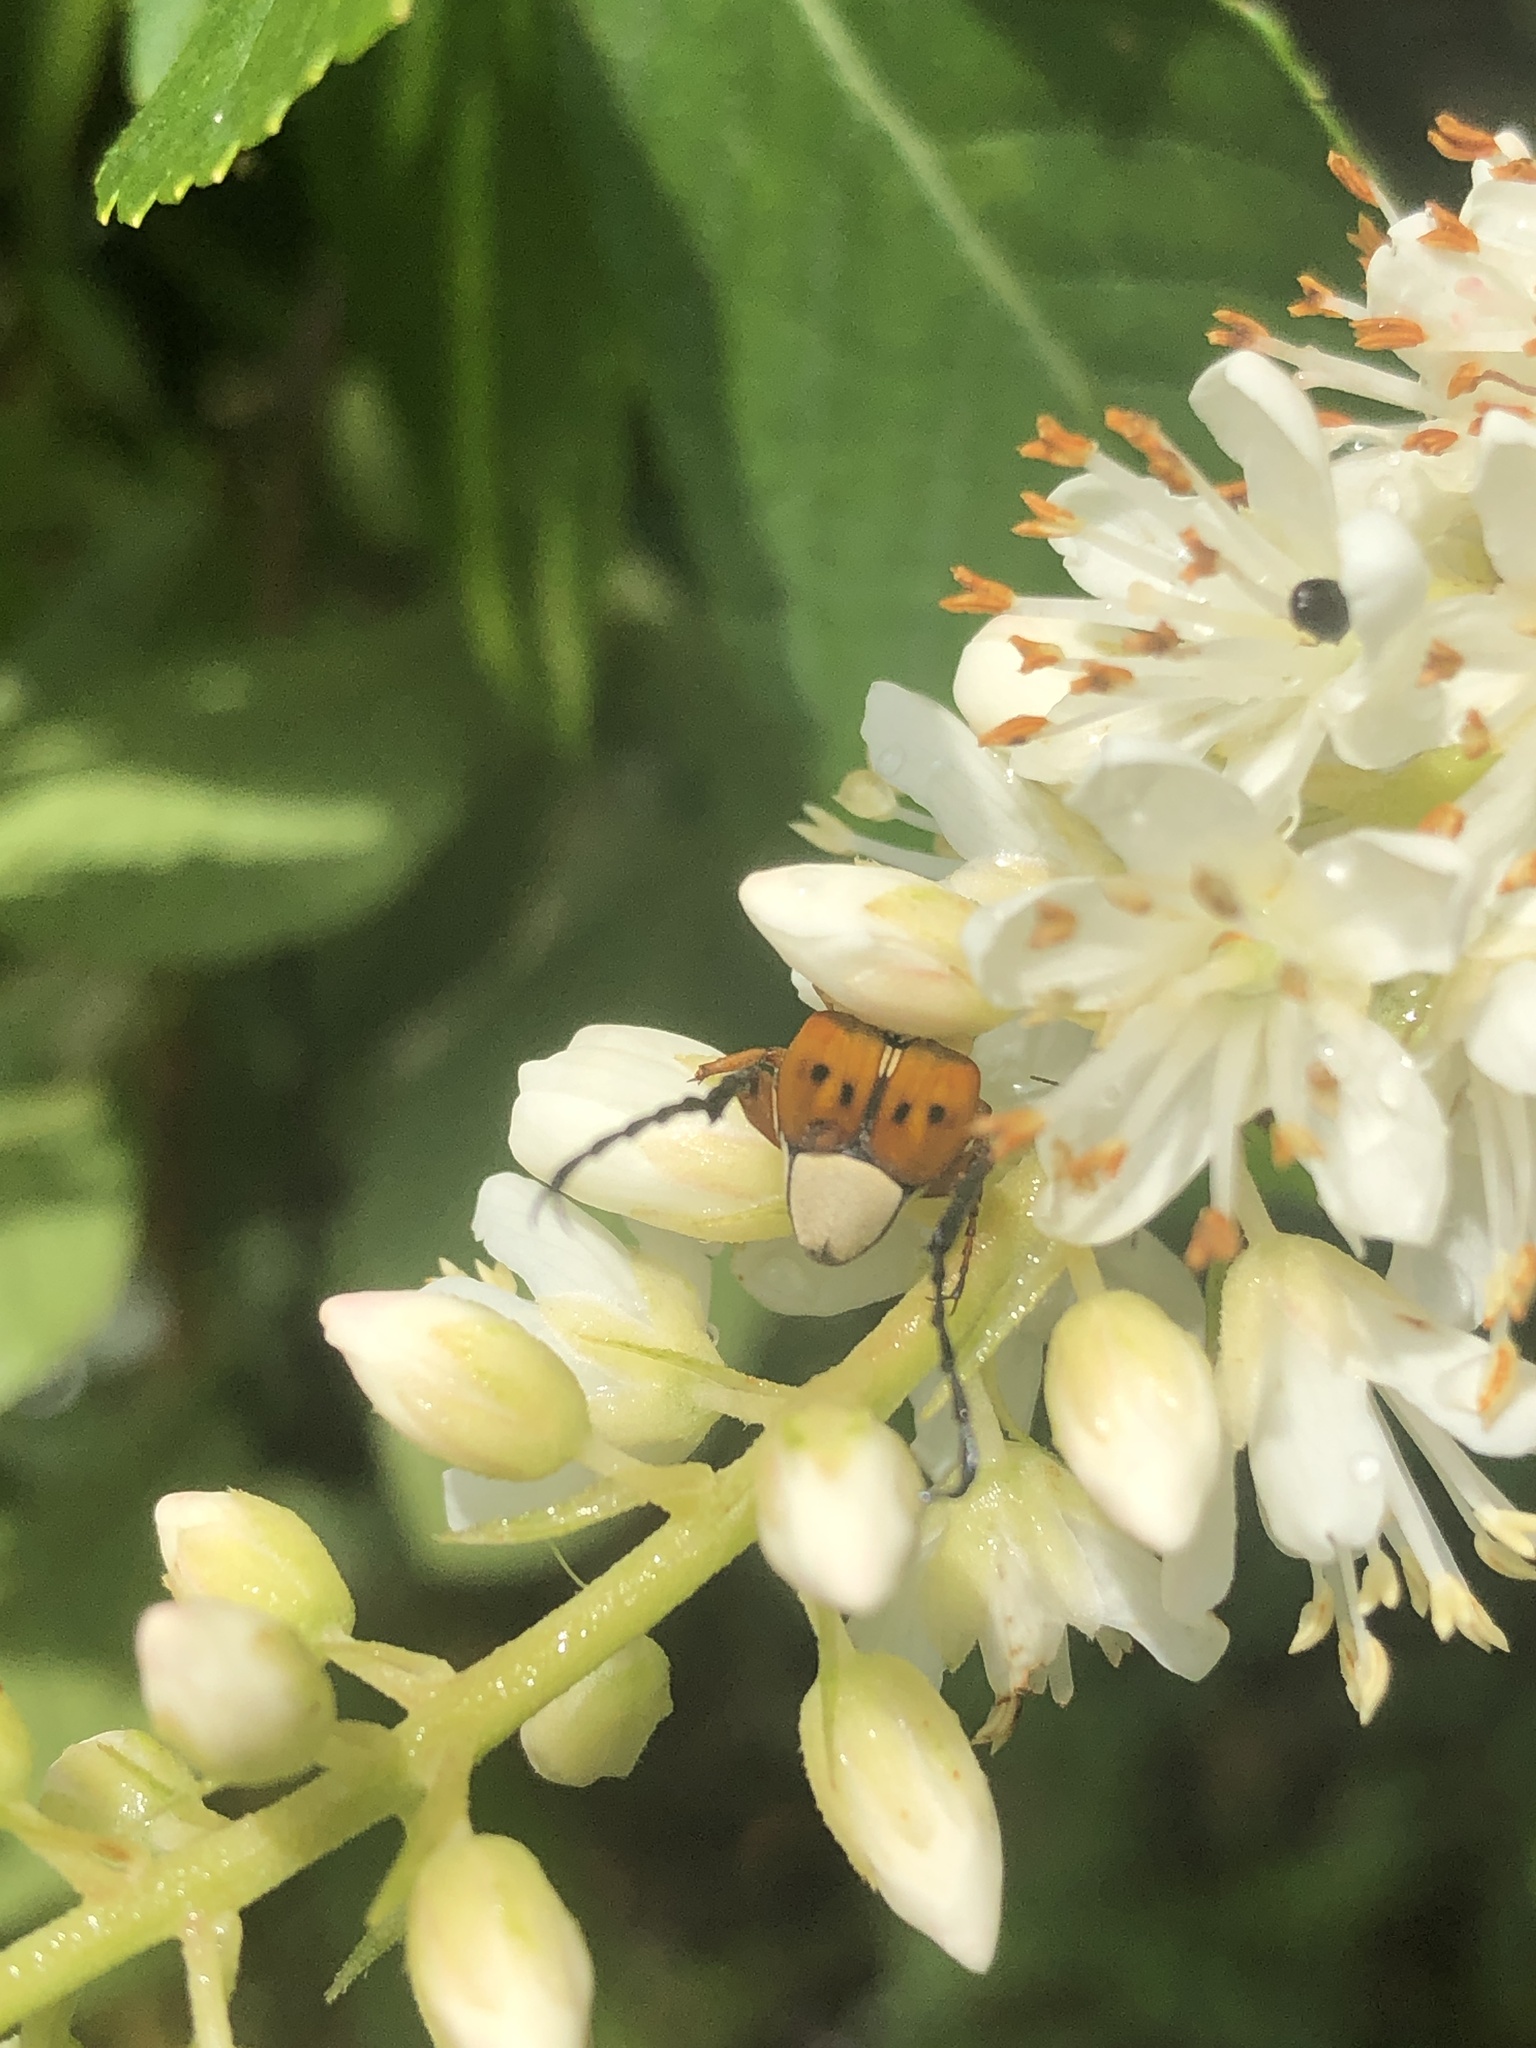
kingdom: Animalia
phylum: Arthropoda
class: Insecta
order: Coleoptera
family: Scarabaeidae
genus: Trigonopeltastes
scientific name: Trigonopeltastes delta
